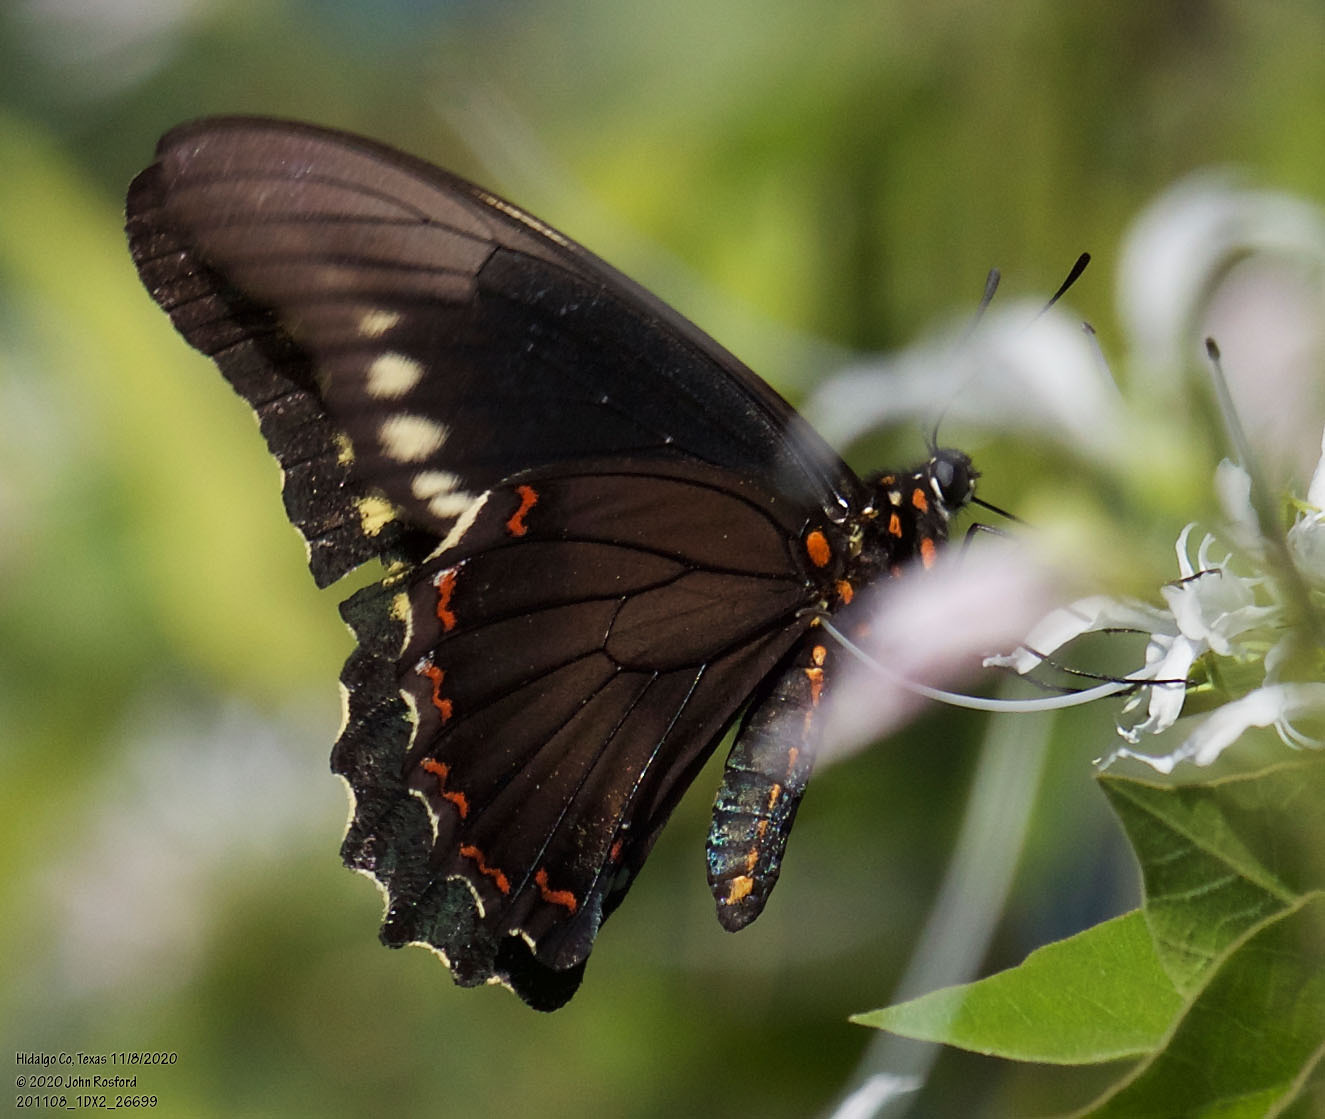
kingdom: Animalia
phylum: Arthropoda
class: Insecta
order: Lepidoptera
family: Papilionidae
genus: Battus
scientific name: Battus polydamas
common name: Polydamas swallowtail
